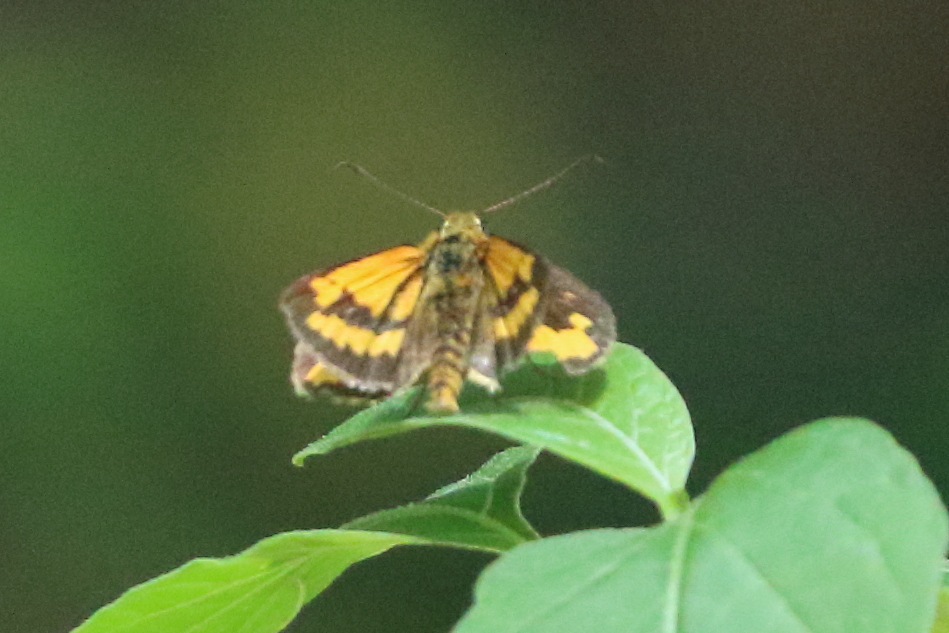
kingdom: Animalia
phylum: Arthropoda
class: Insecta
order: Lepidoptera
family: Hesperiidae
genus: Suniana
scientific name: Suniana sunias
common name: Wide-brand grass-dart
